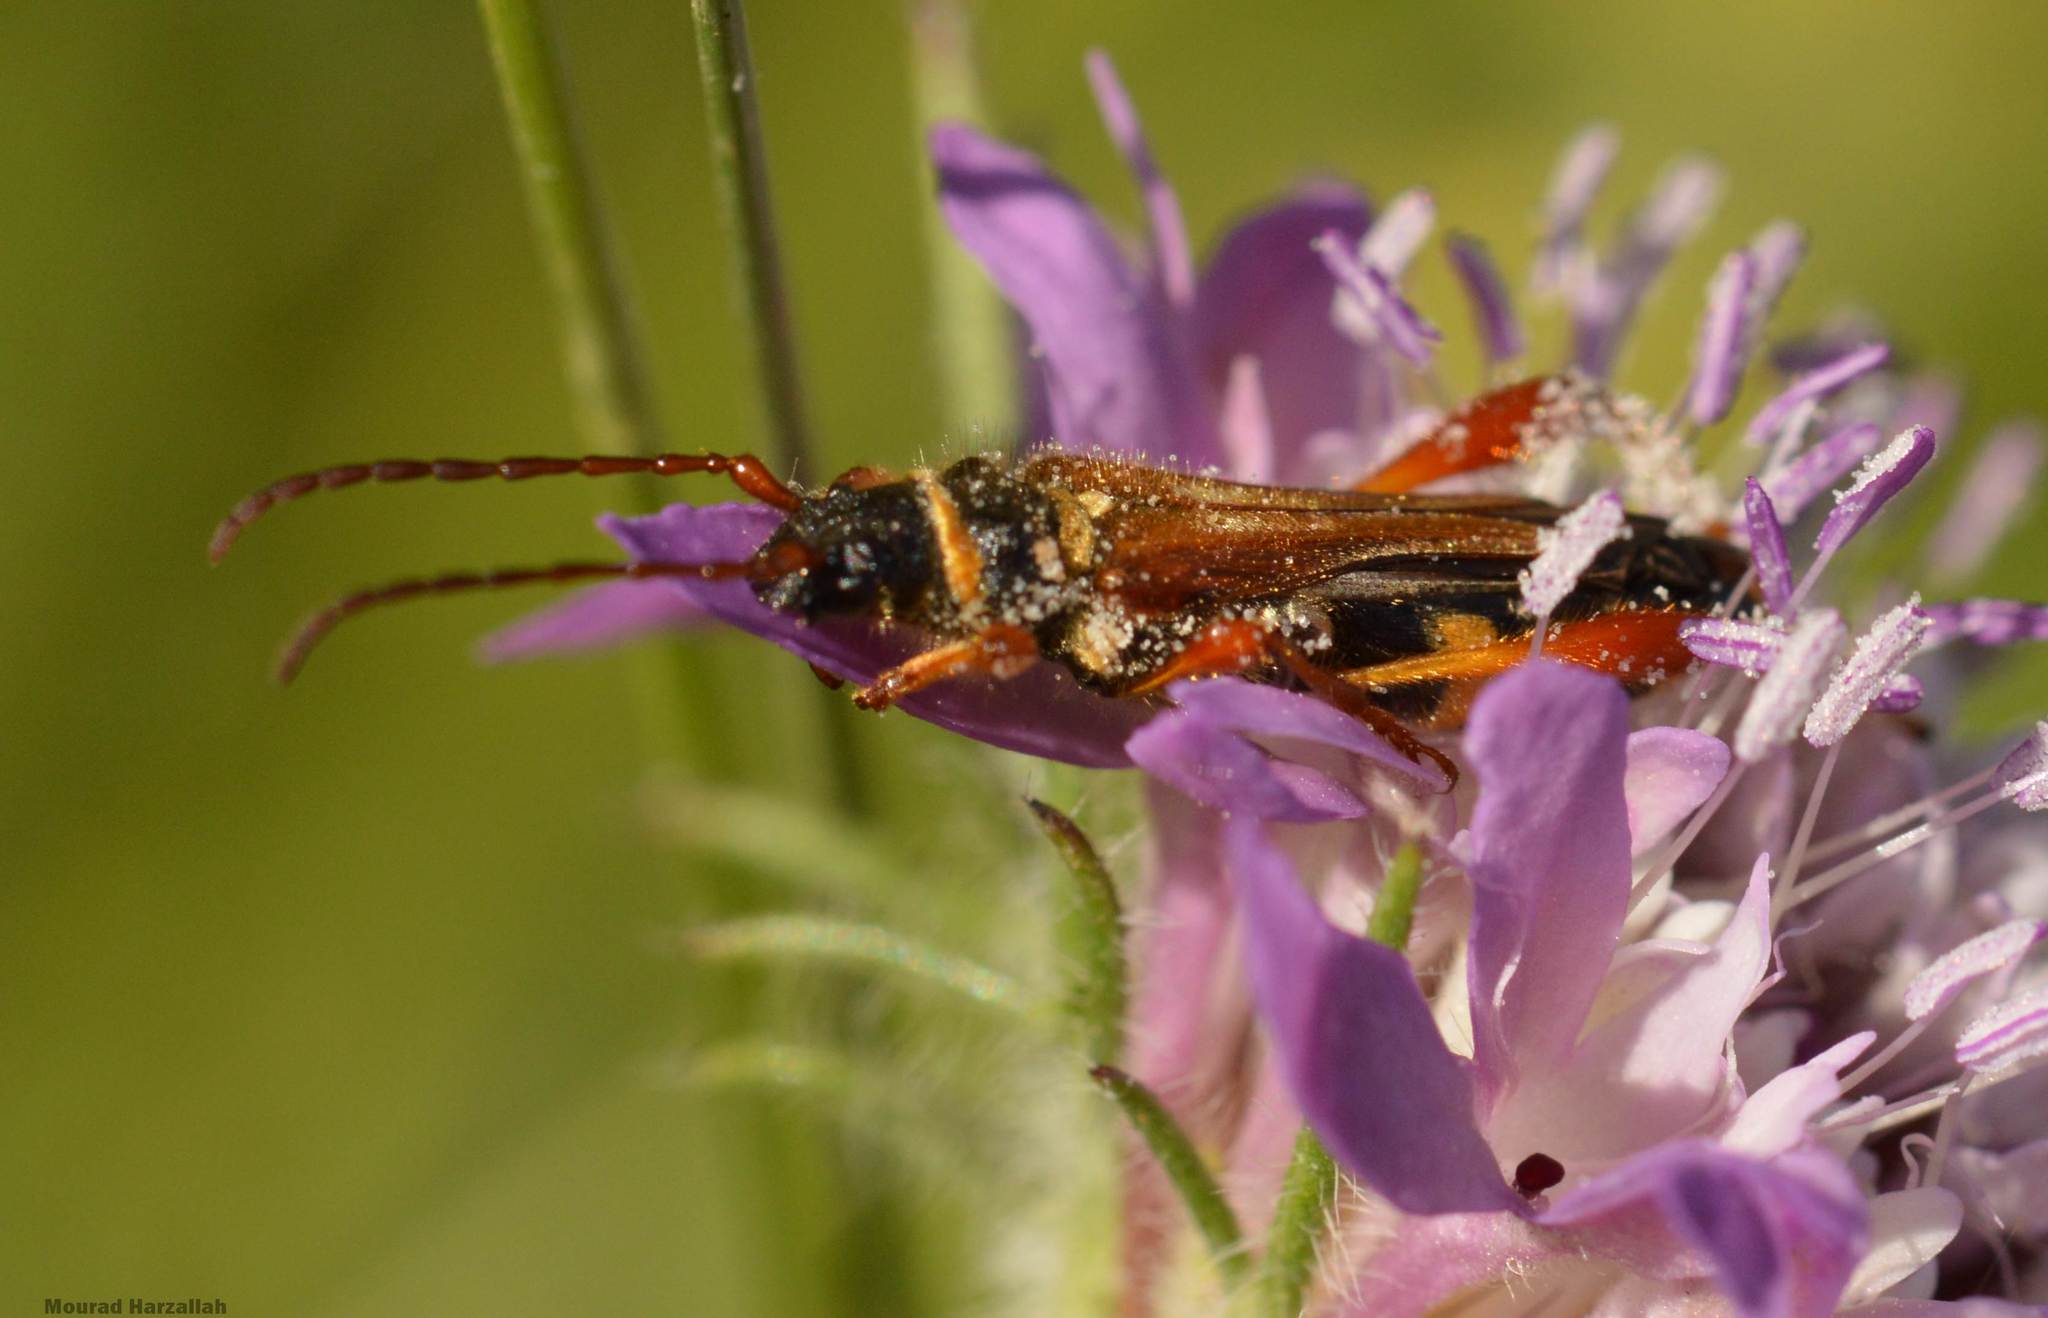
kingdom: Animalia
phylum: Arthropoda
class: Insecta
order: Coleoptera
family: Cerambycidae
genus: Stenopterus
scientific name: Stenopterus mauritanicus
